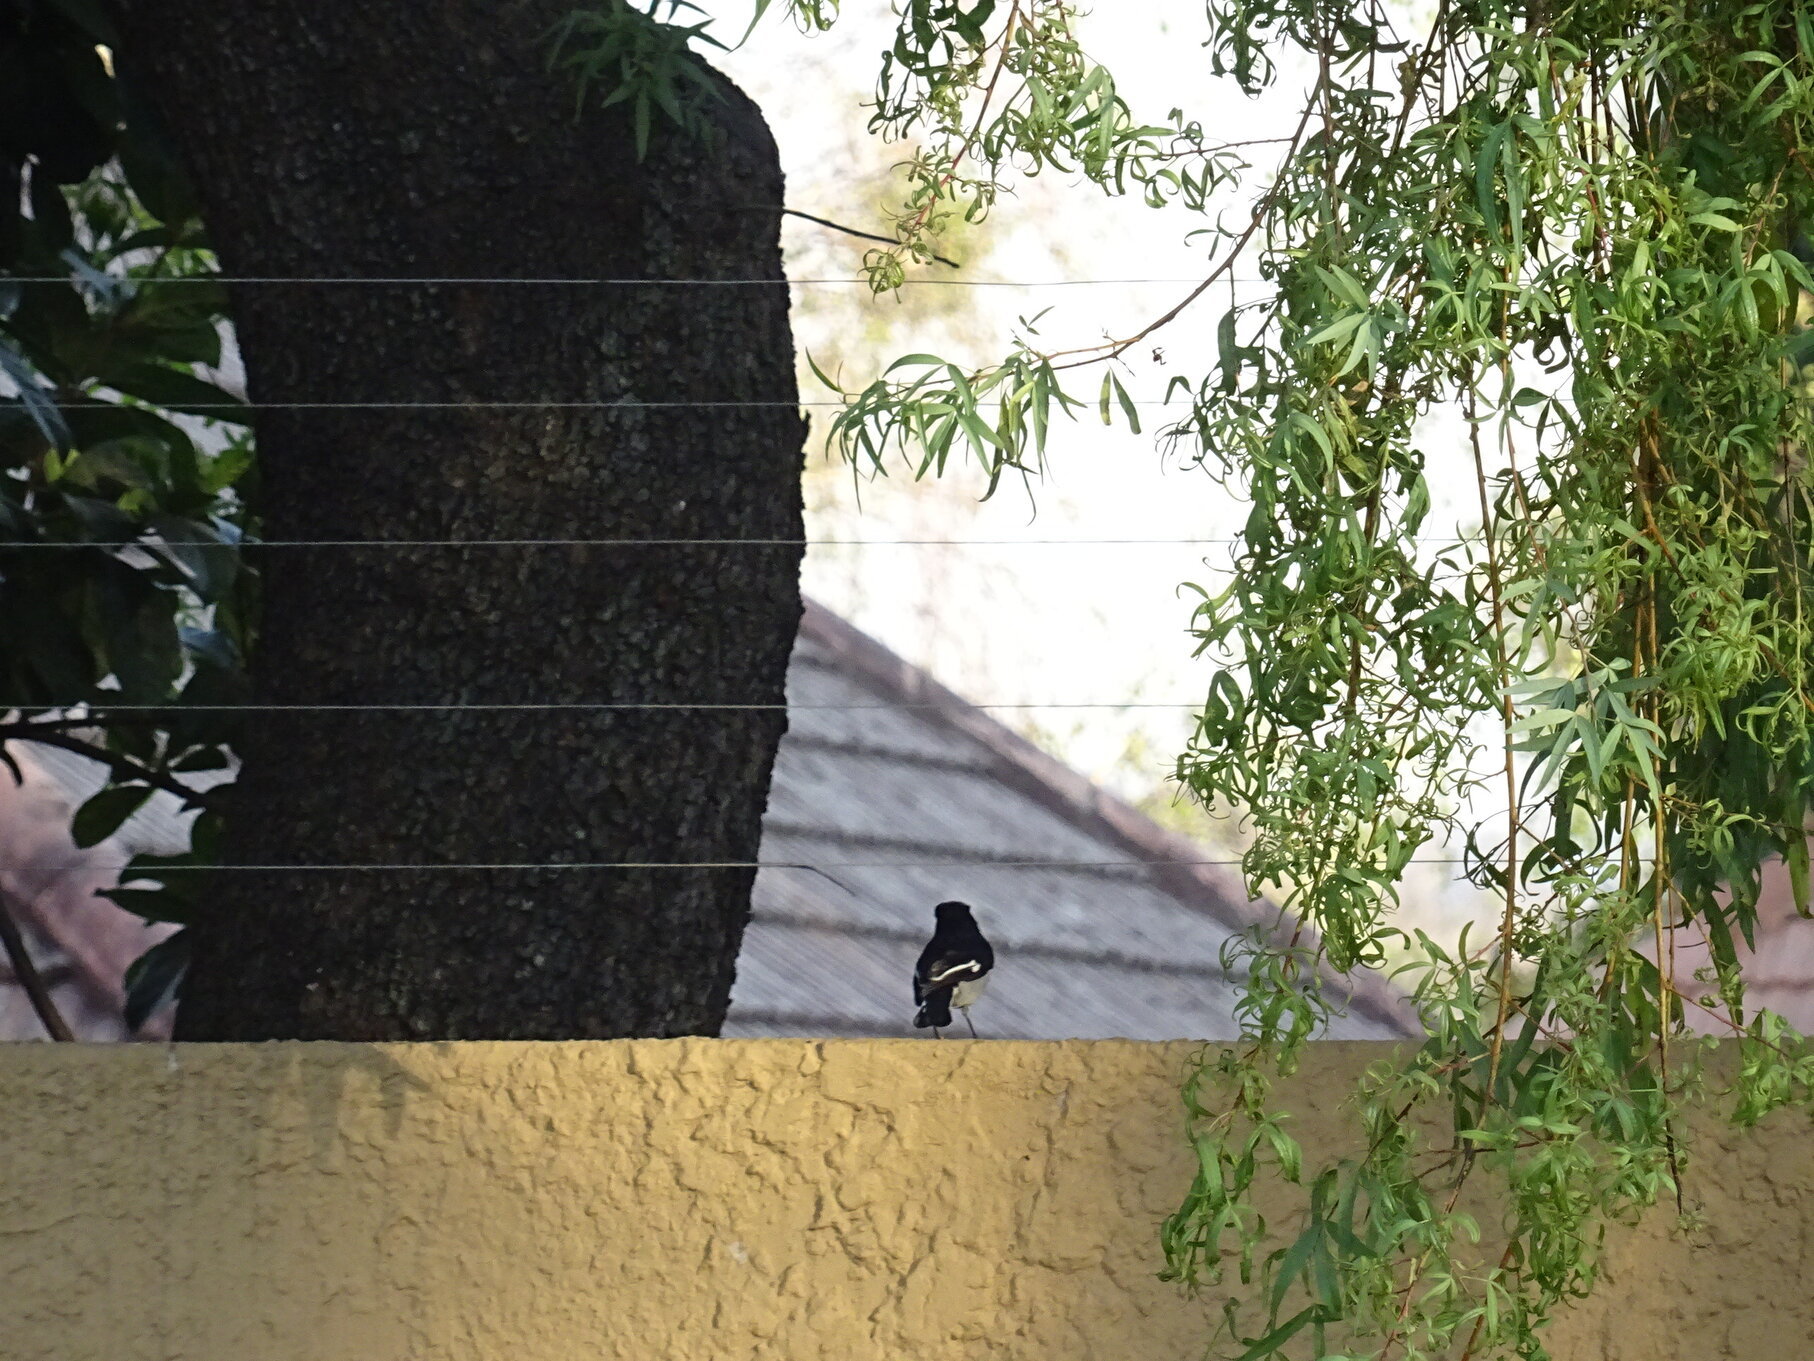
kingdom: Animalia
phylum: Chordata
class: Aves
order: Passeriformes
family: Laniidae
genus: Lanius
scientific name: Lanius collaris
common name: Southern fiscal
